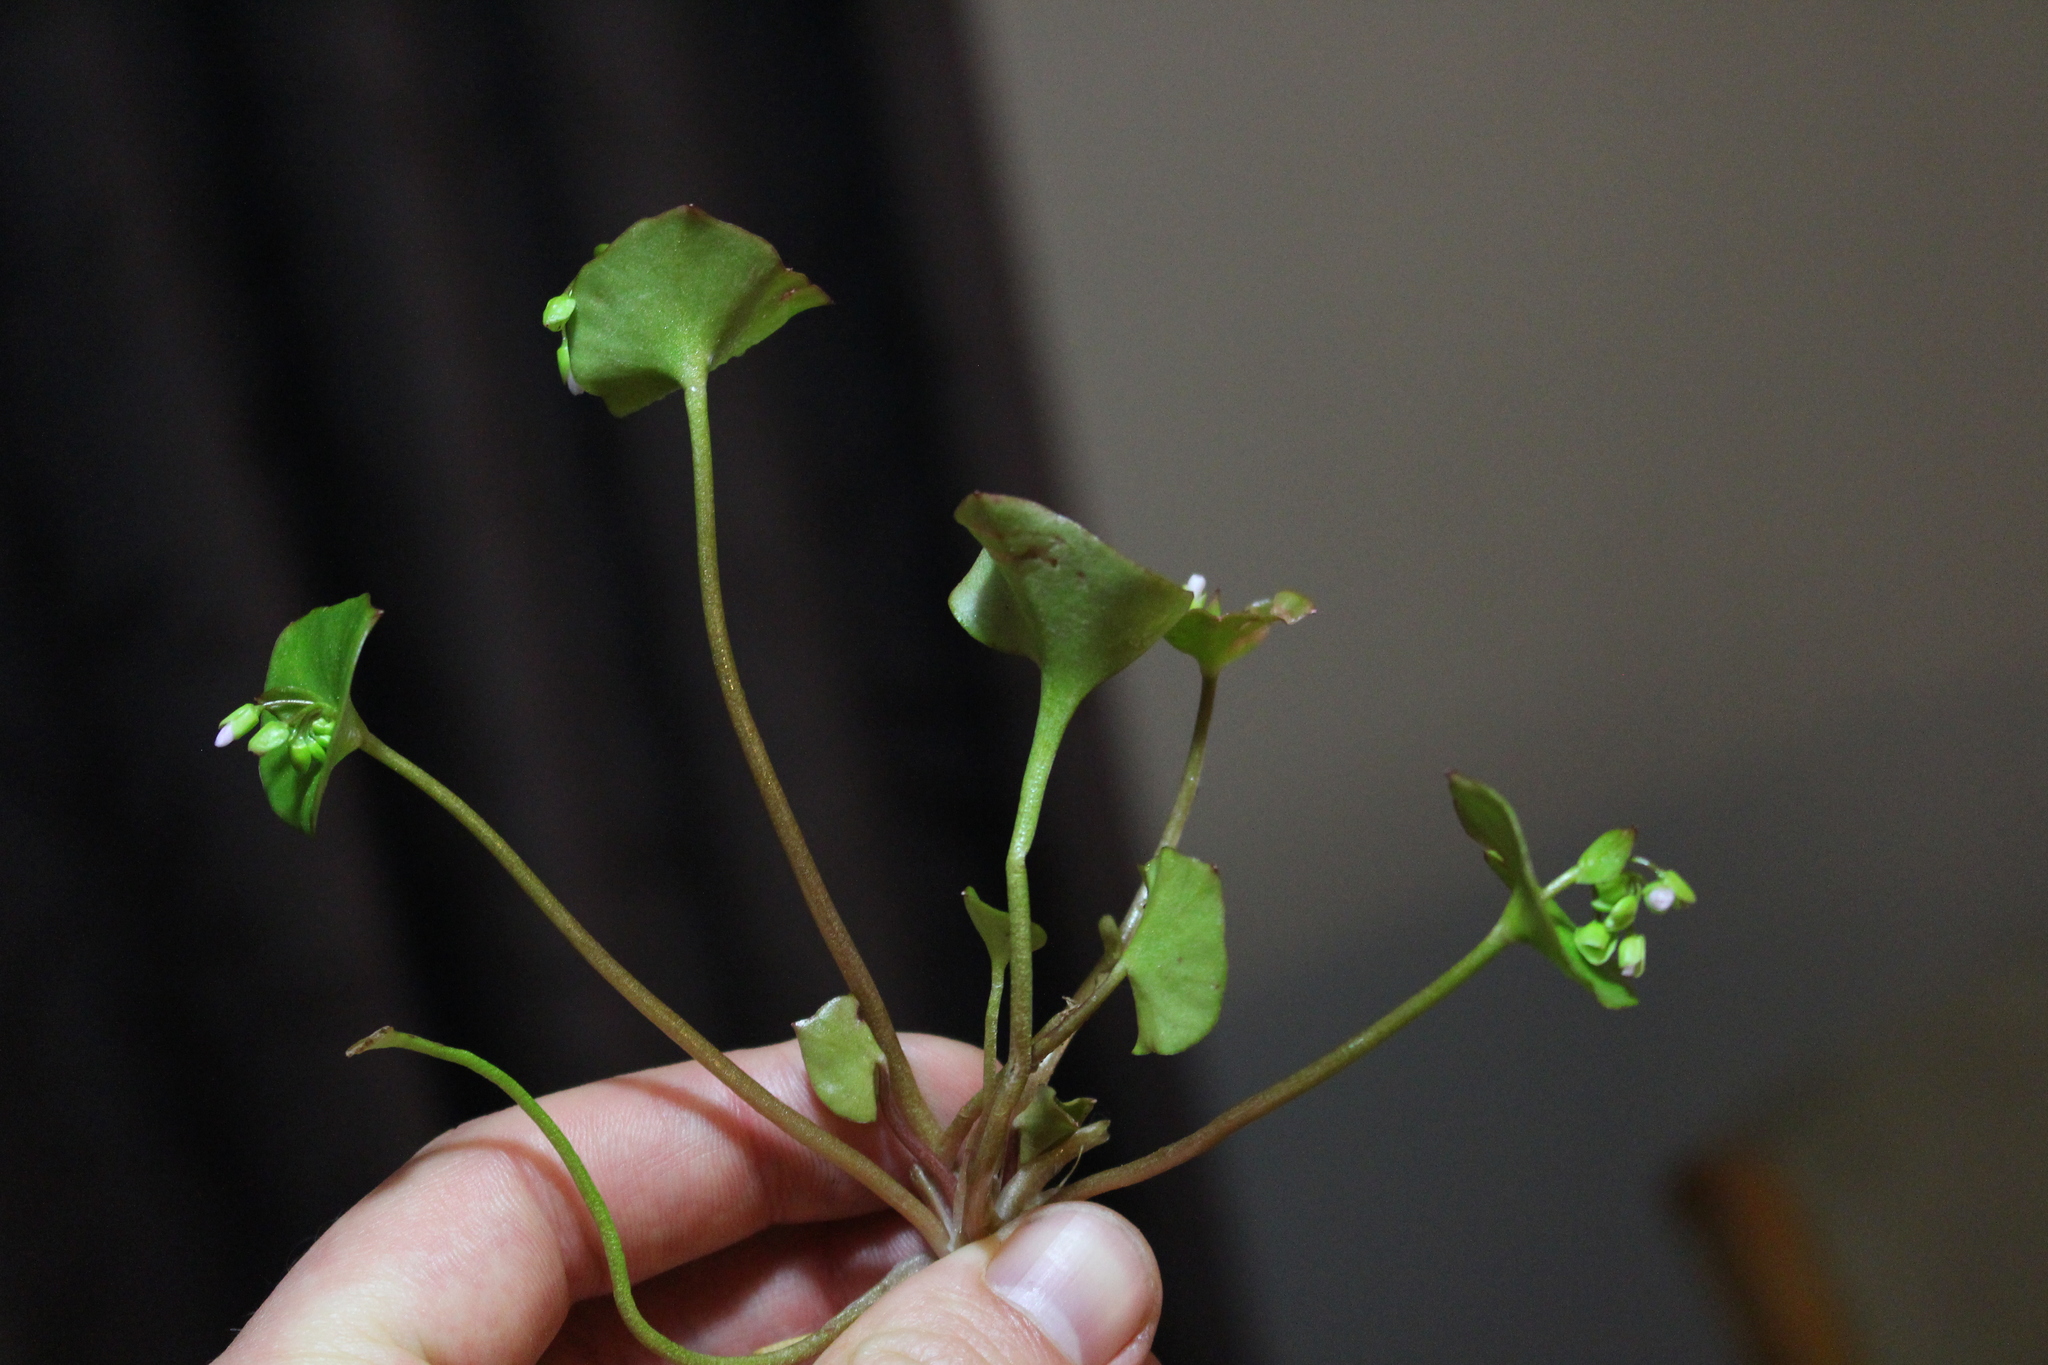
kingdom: Plantae
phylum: Tracheophyta
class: Magnoliopsida
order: Caryophyllales
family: Montiaceae
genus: Claytonia
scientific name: Claytonia perfoliata
